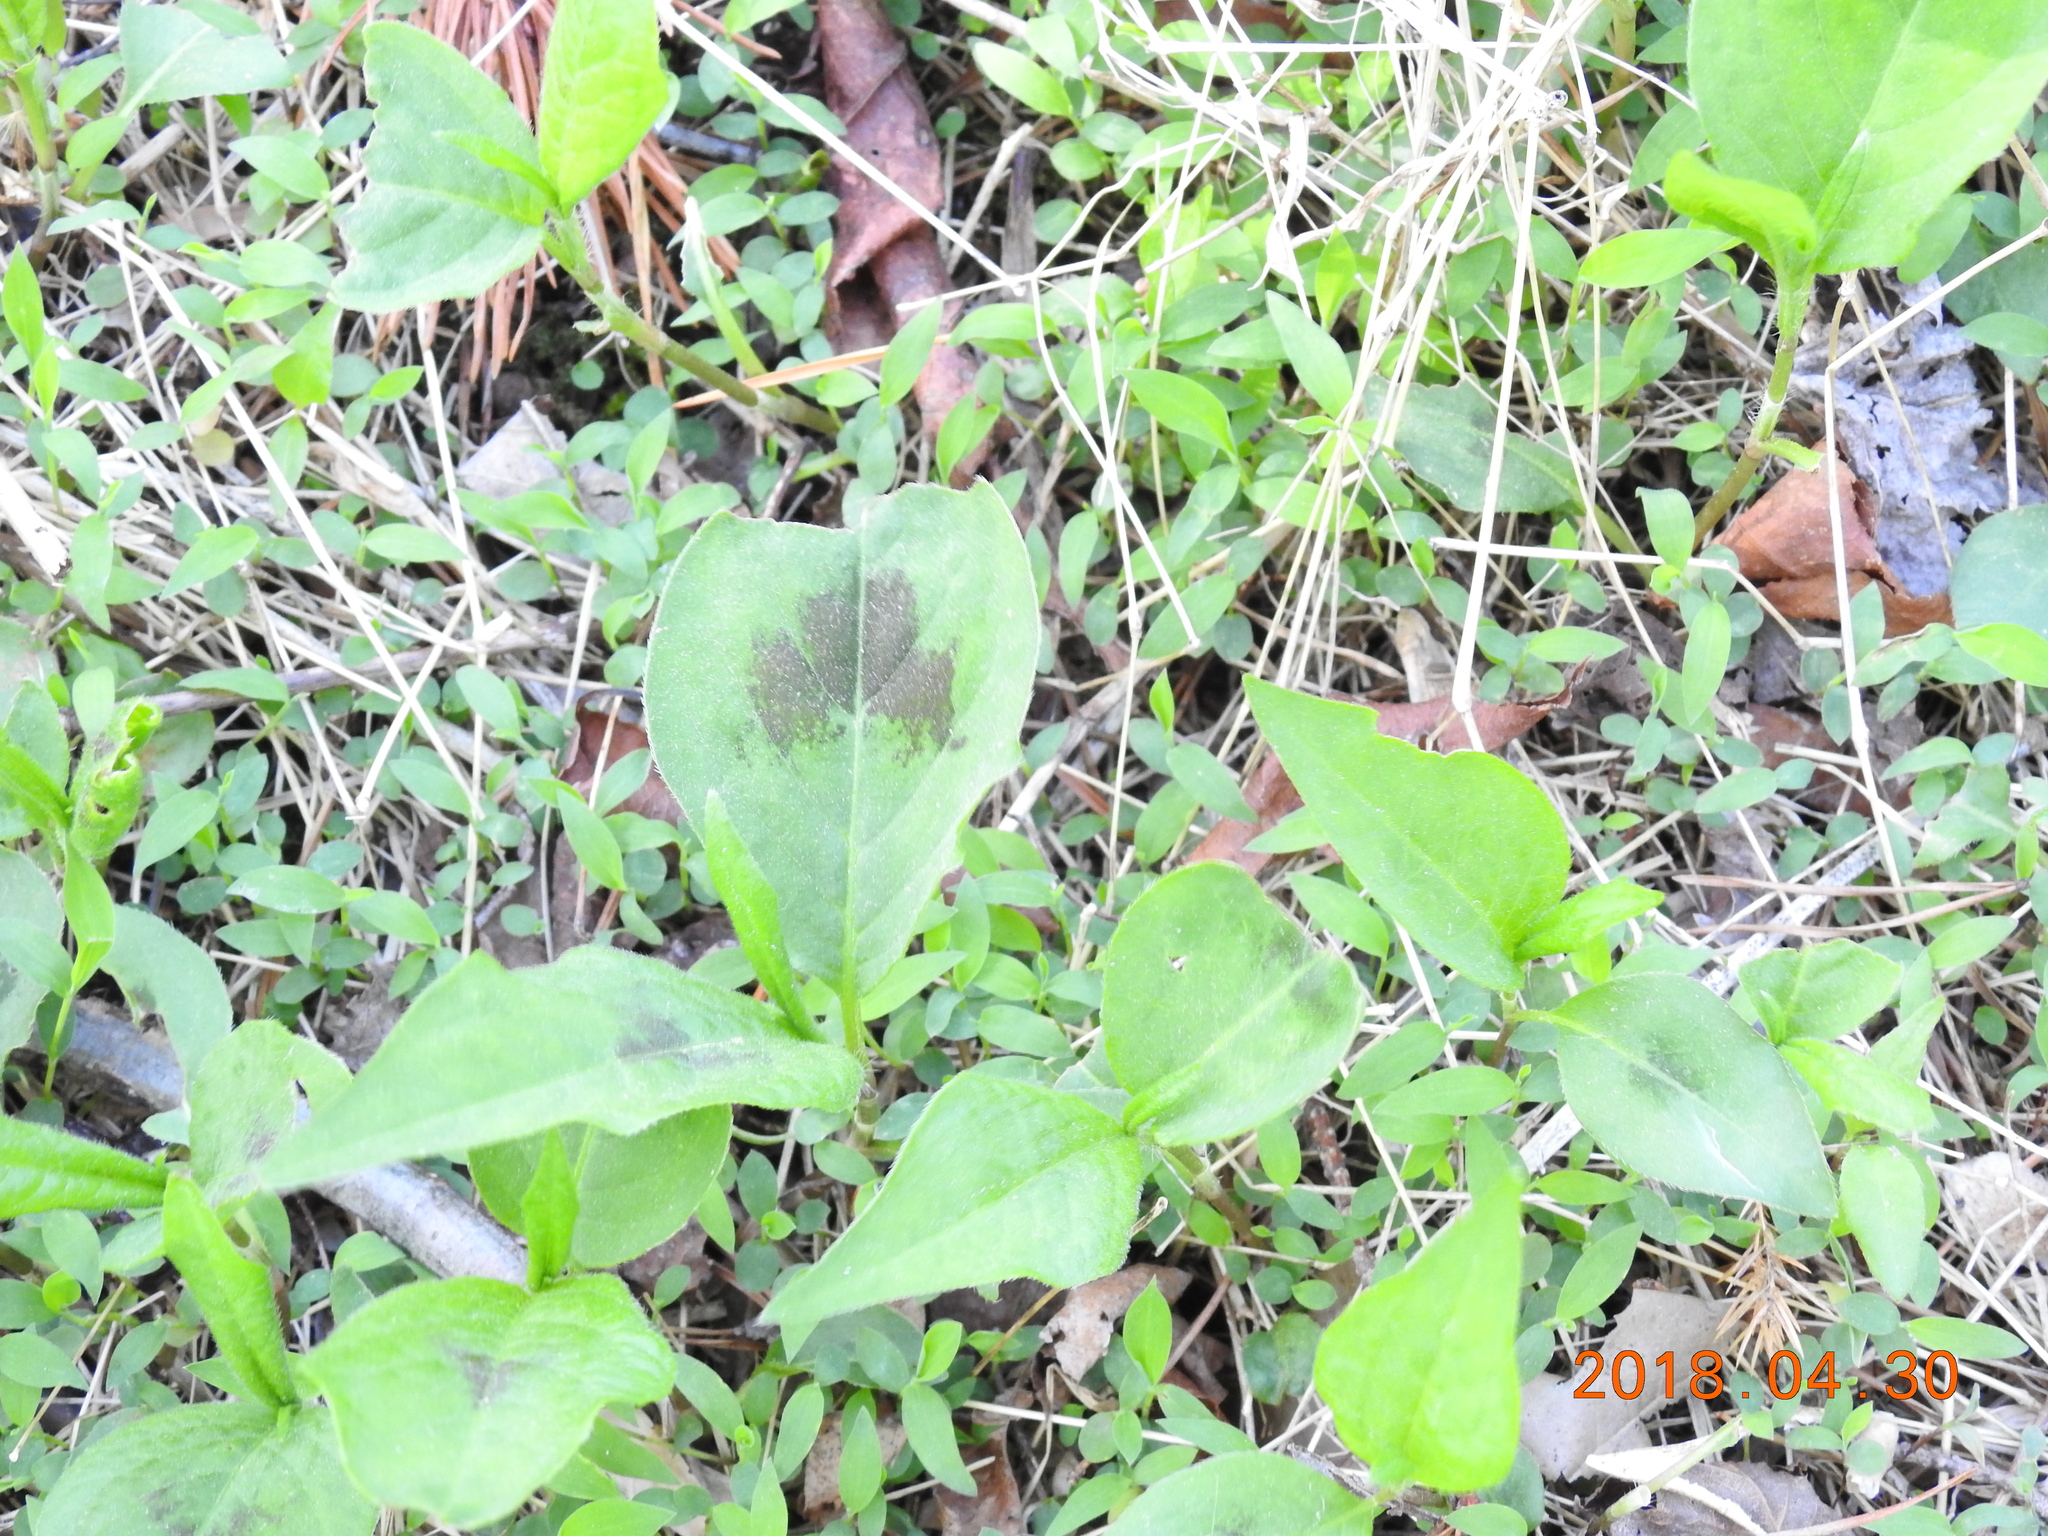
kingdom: Plantae
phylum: Tracheophyta
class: Magnoliopsida
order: Caryophyllales
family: Polygonaceae
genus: Persicaria
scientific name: Persicaria virginiana
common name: Jumpseed
